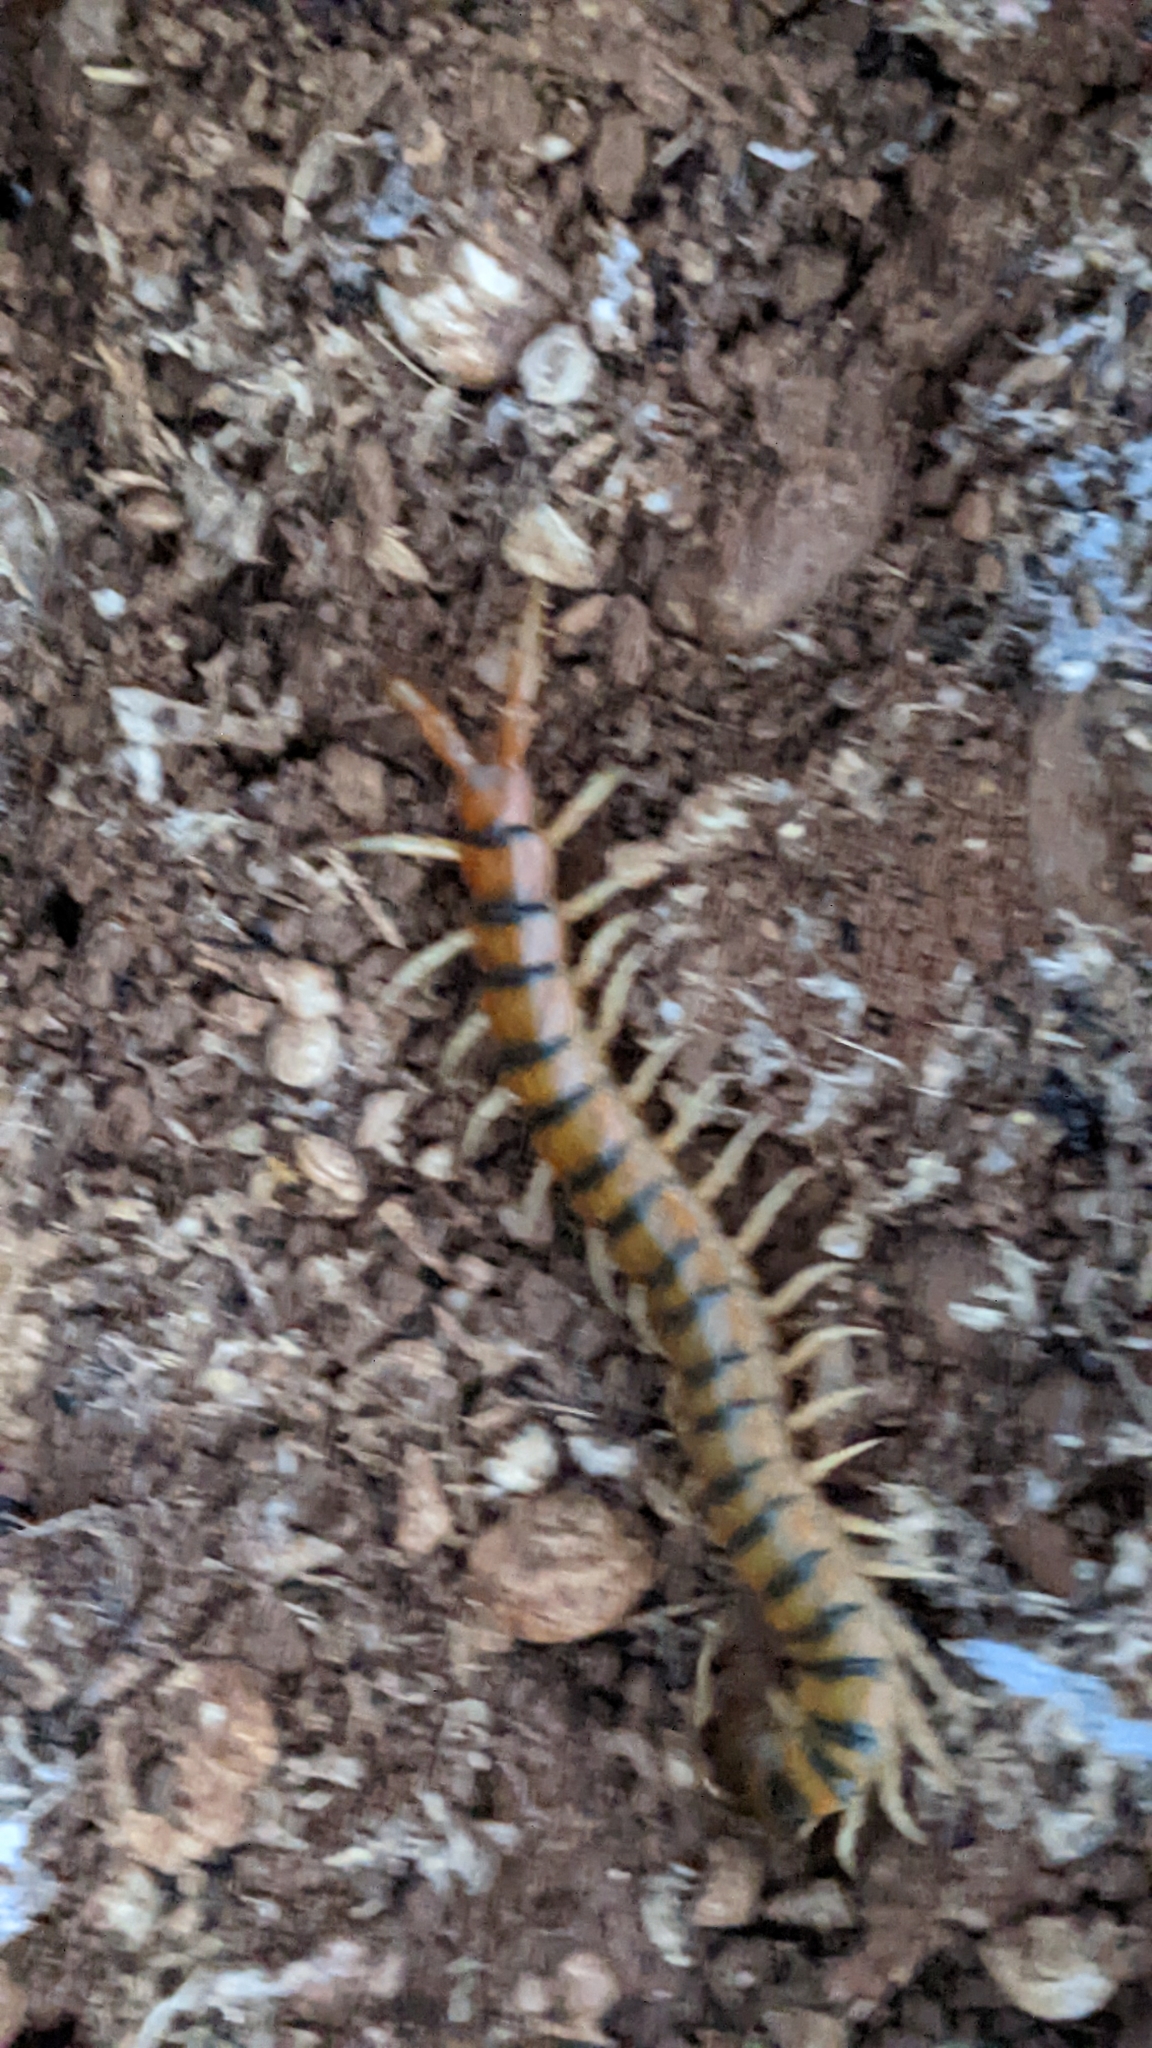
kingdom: Animalia
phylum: Arthropoda
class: Chilopoda
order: Scolopendromorpha
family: Scolopendridae
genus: Scolopendra
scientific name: Scolopendra cingulata
